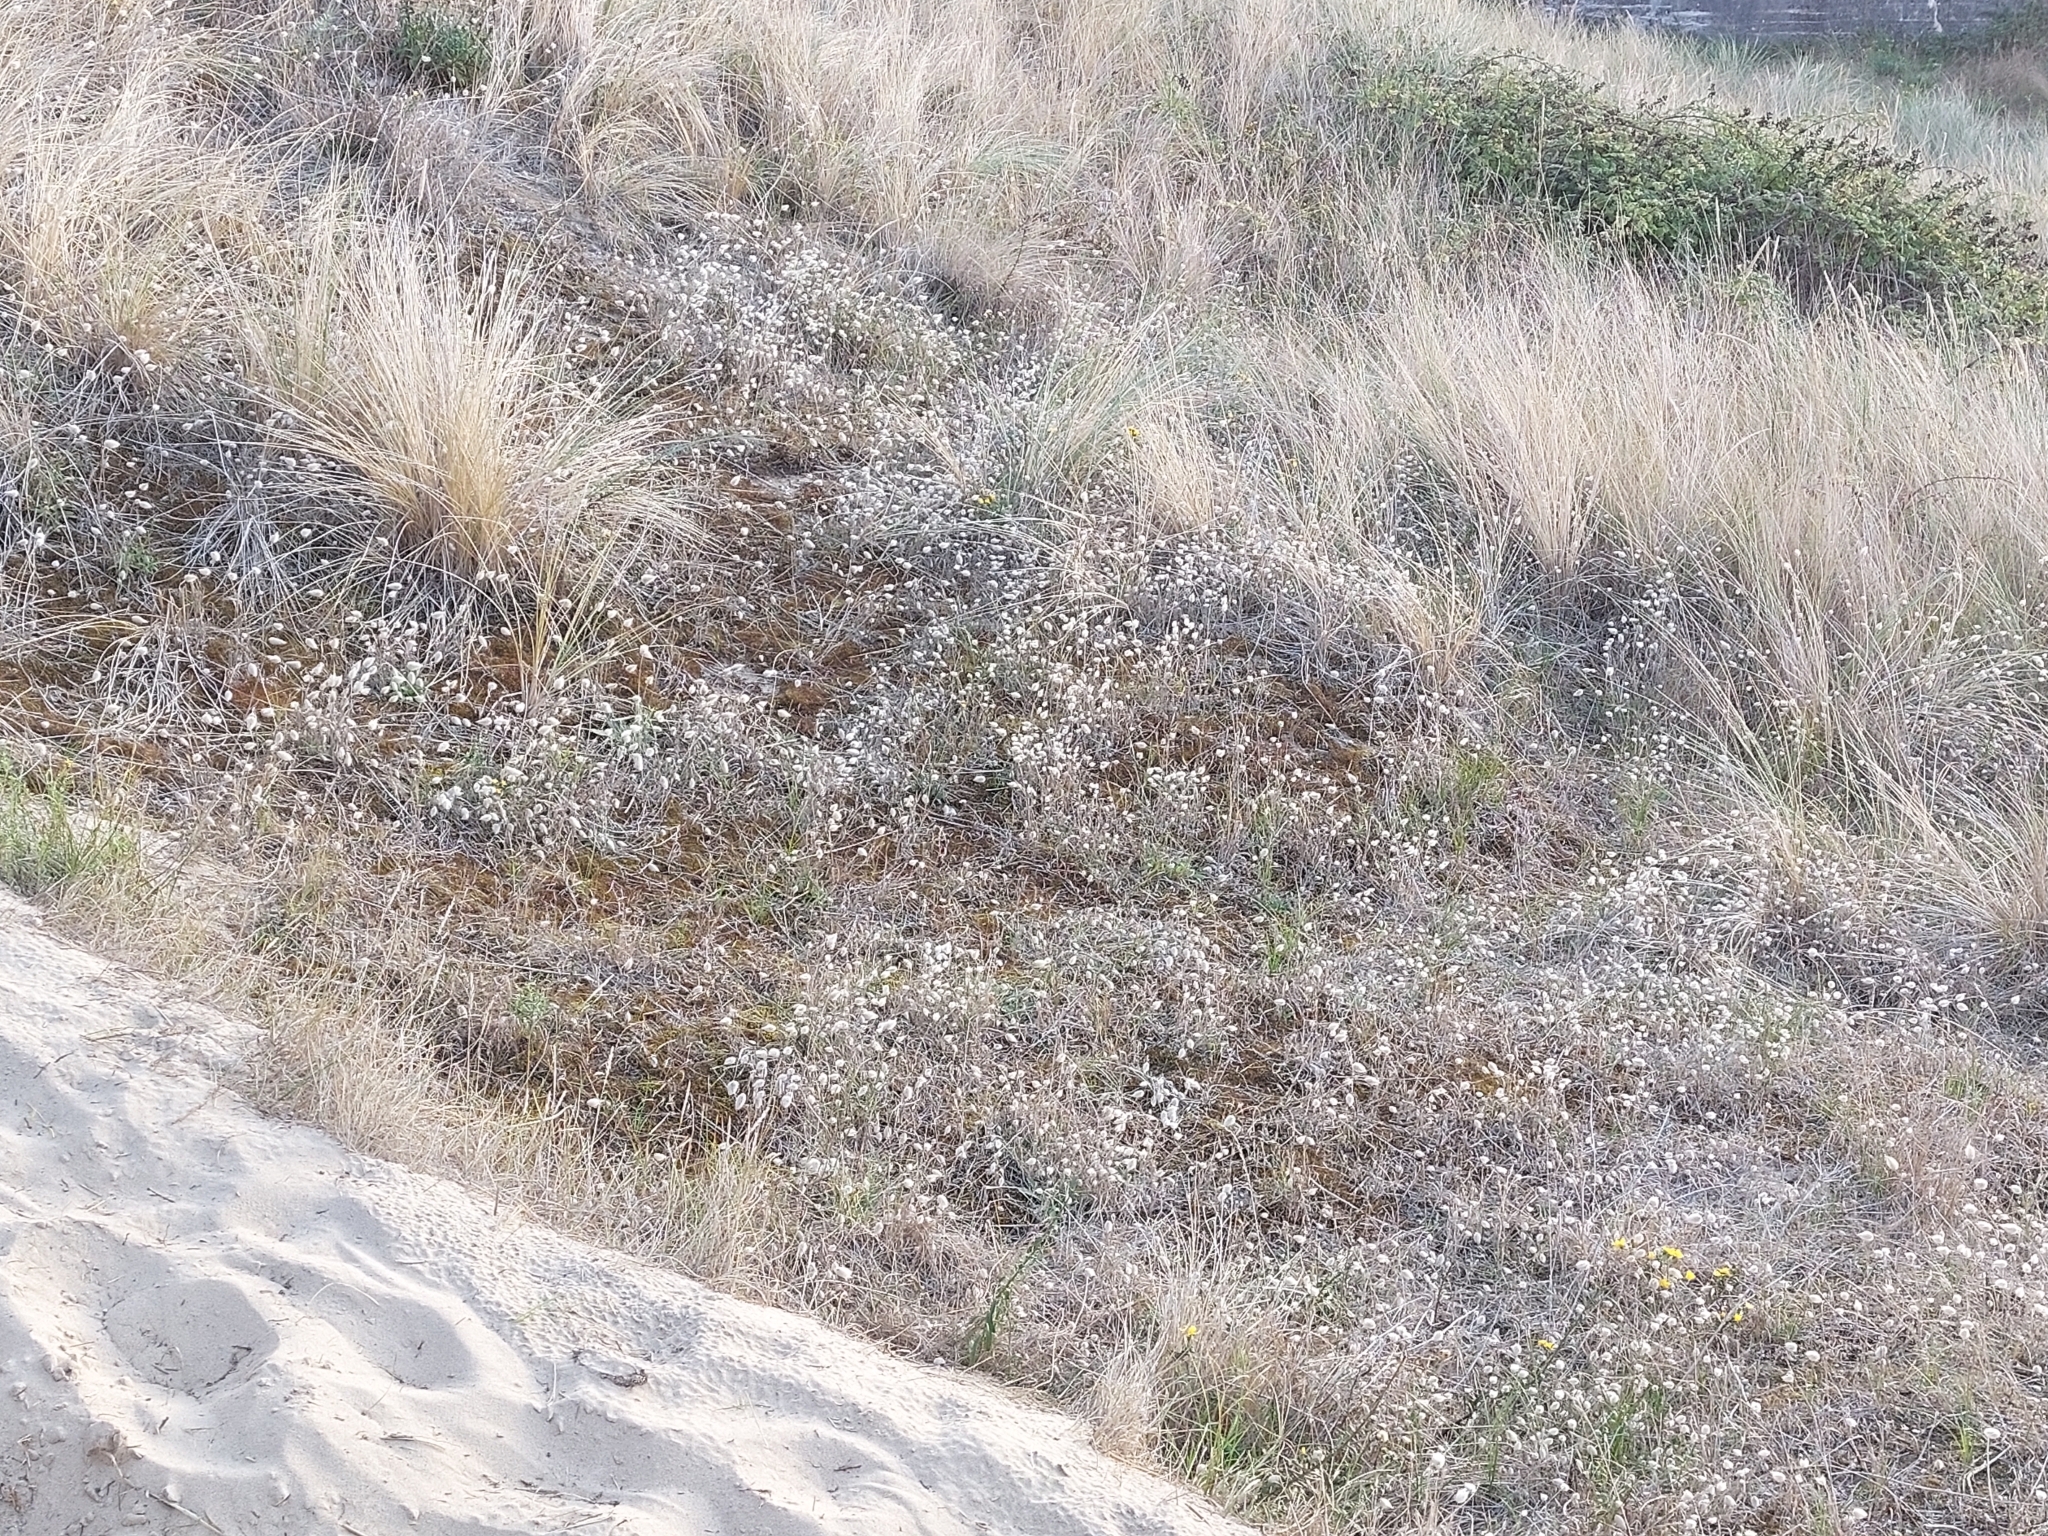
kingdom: Plantae
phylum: Tracheophyta
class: Liliopsida
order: Poales
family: Poaceae
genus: Lagurus
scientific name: Lagurus ovatus
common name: Hare's-tail
